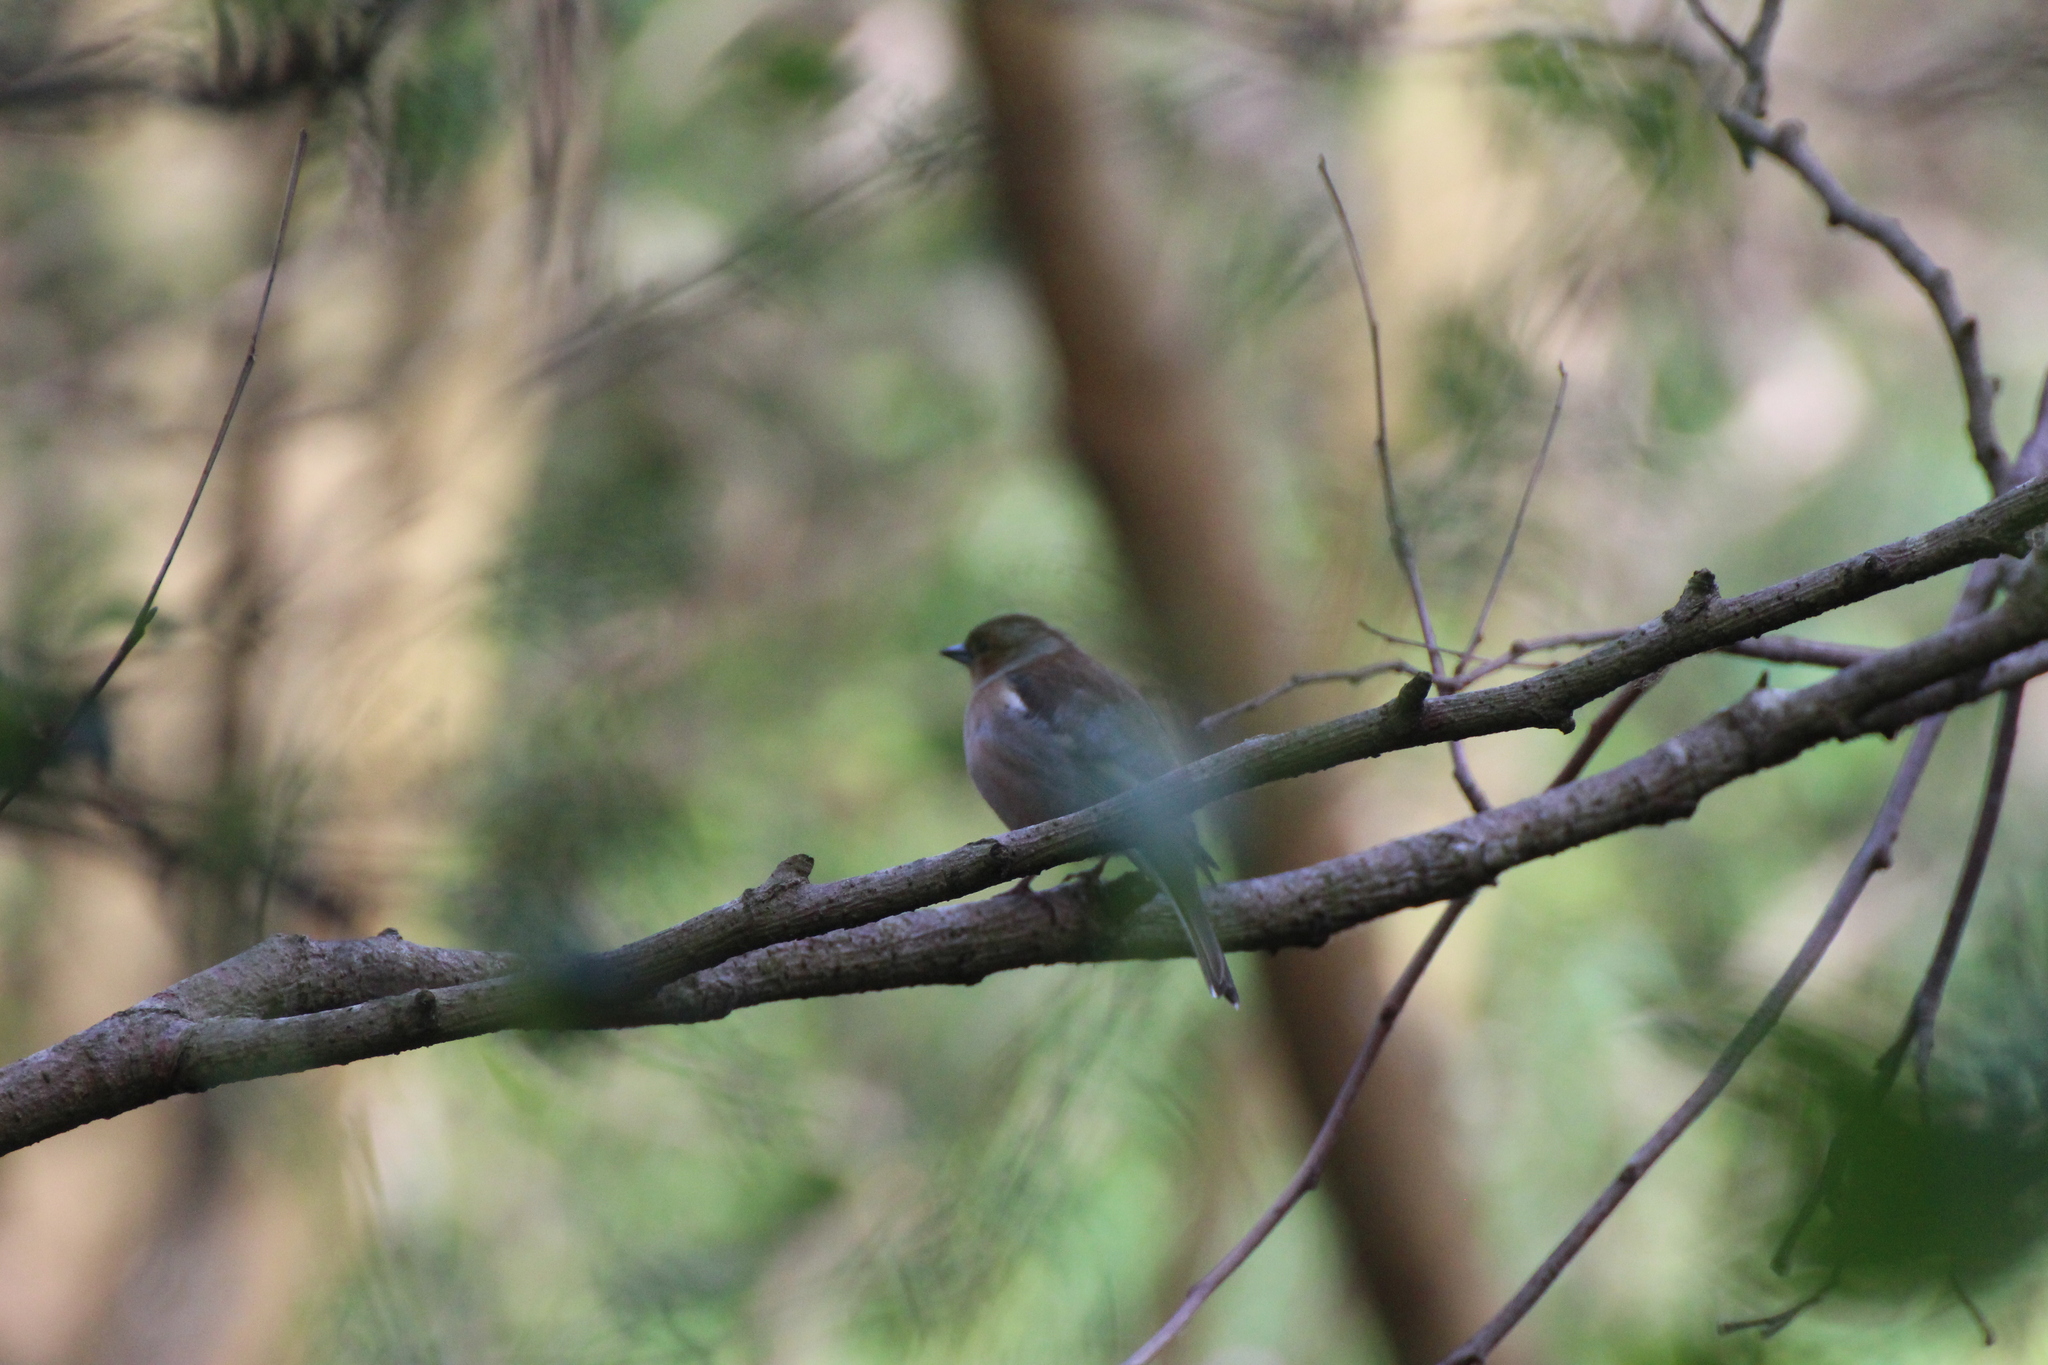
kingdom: Animalia
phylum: Chordata
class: Aves
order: Passeriformes
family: Fringillidae
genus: Fringilla
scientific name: Fringilla coelebs
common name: Common chaffinch
